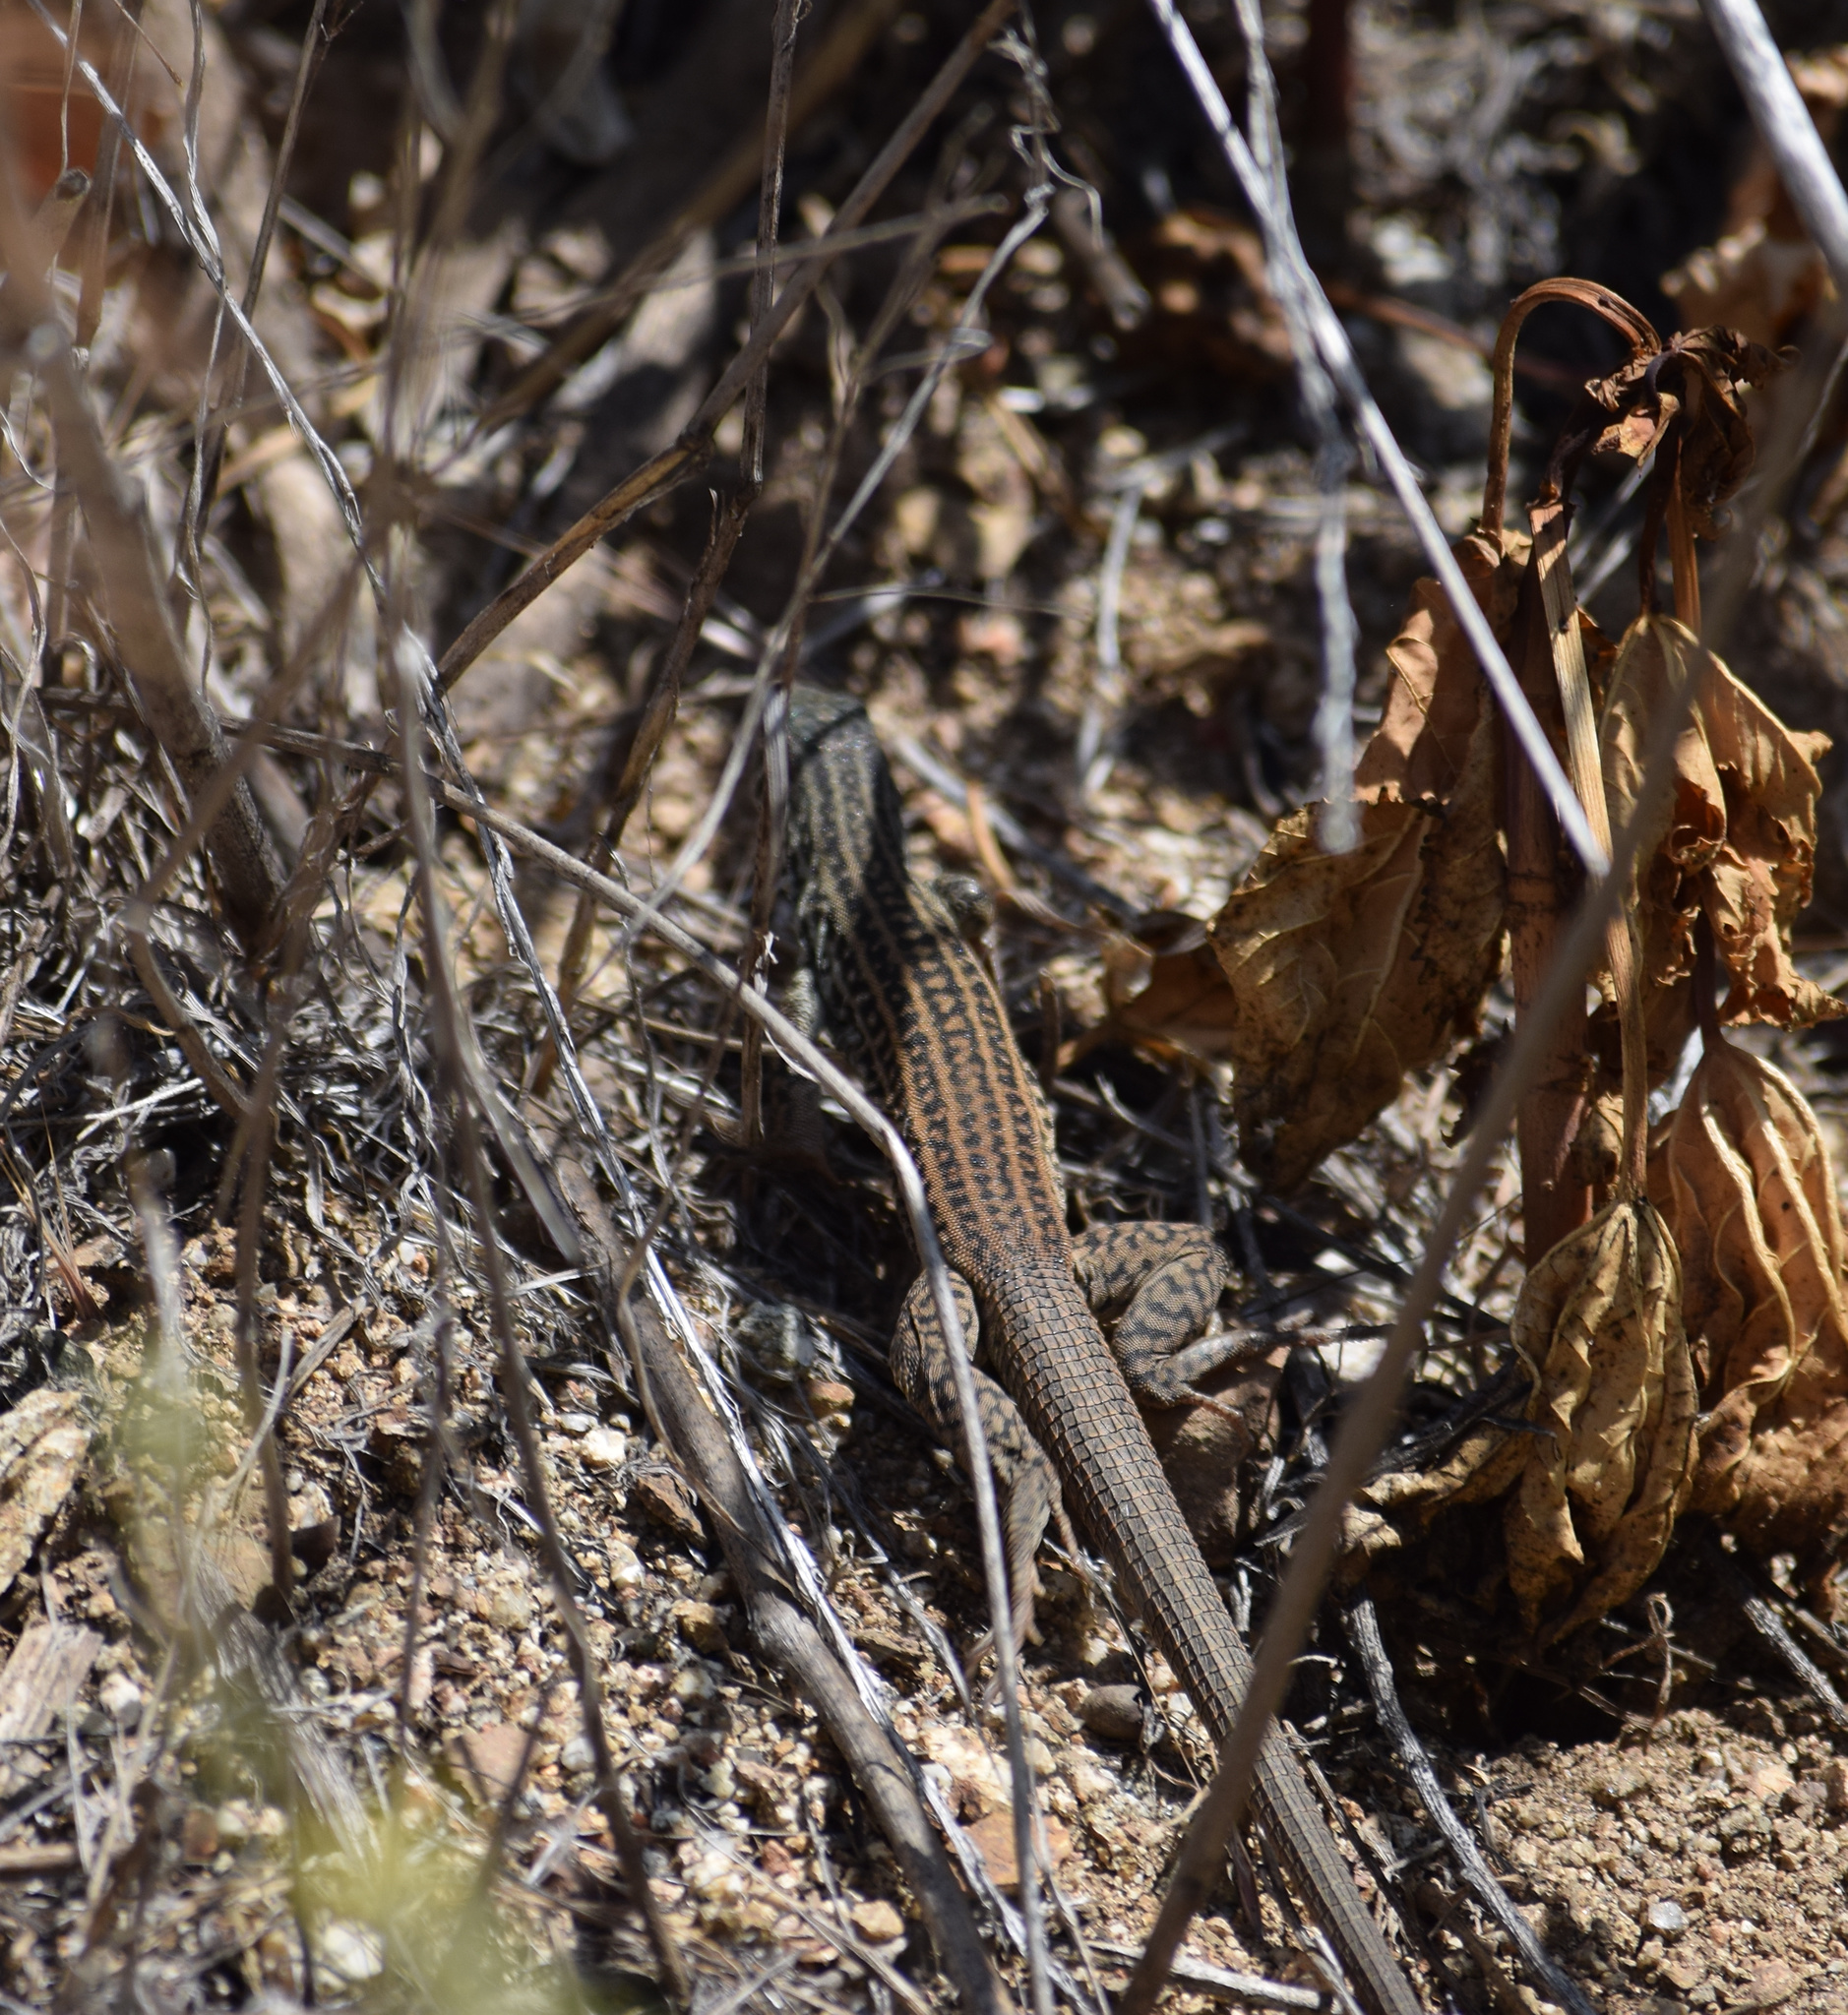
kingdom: Animalia
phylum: Chordata
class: Squamata
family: Teiidae
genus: Aspidoscelis
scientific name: Aspidoscelis tigris
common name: Tiger whiptail
